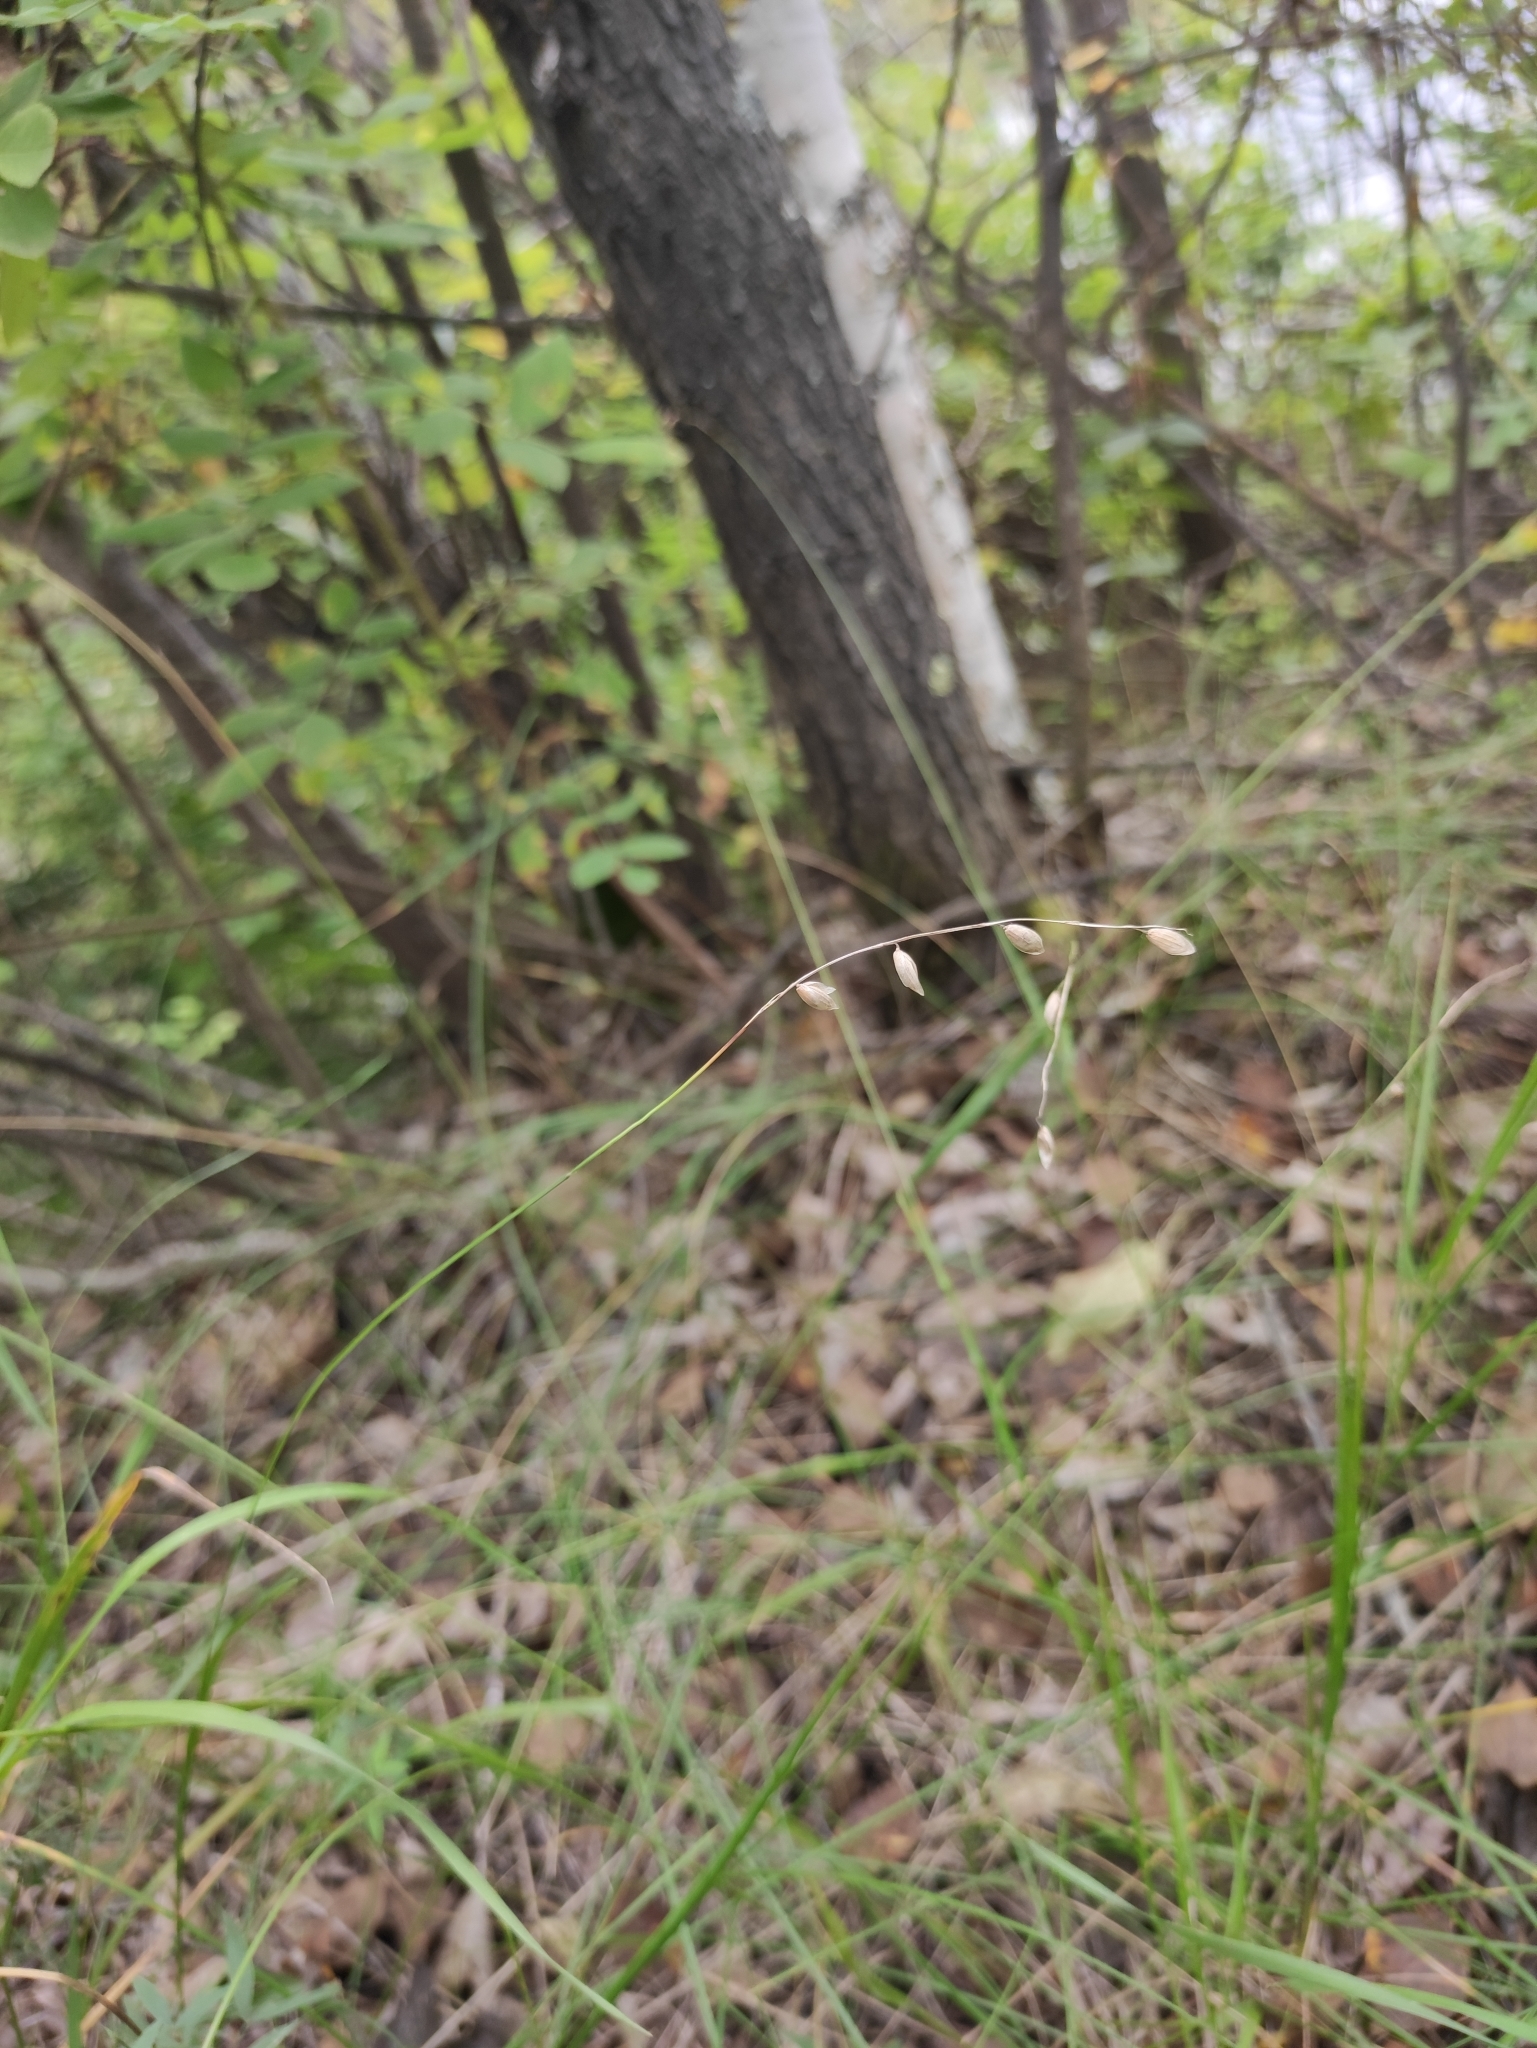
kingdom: Plantae
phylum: Tracheophyta
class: Liliopsida
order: Poales
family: Poaceae
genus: Melica
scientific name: Melica nutans
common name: Mountain melick
